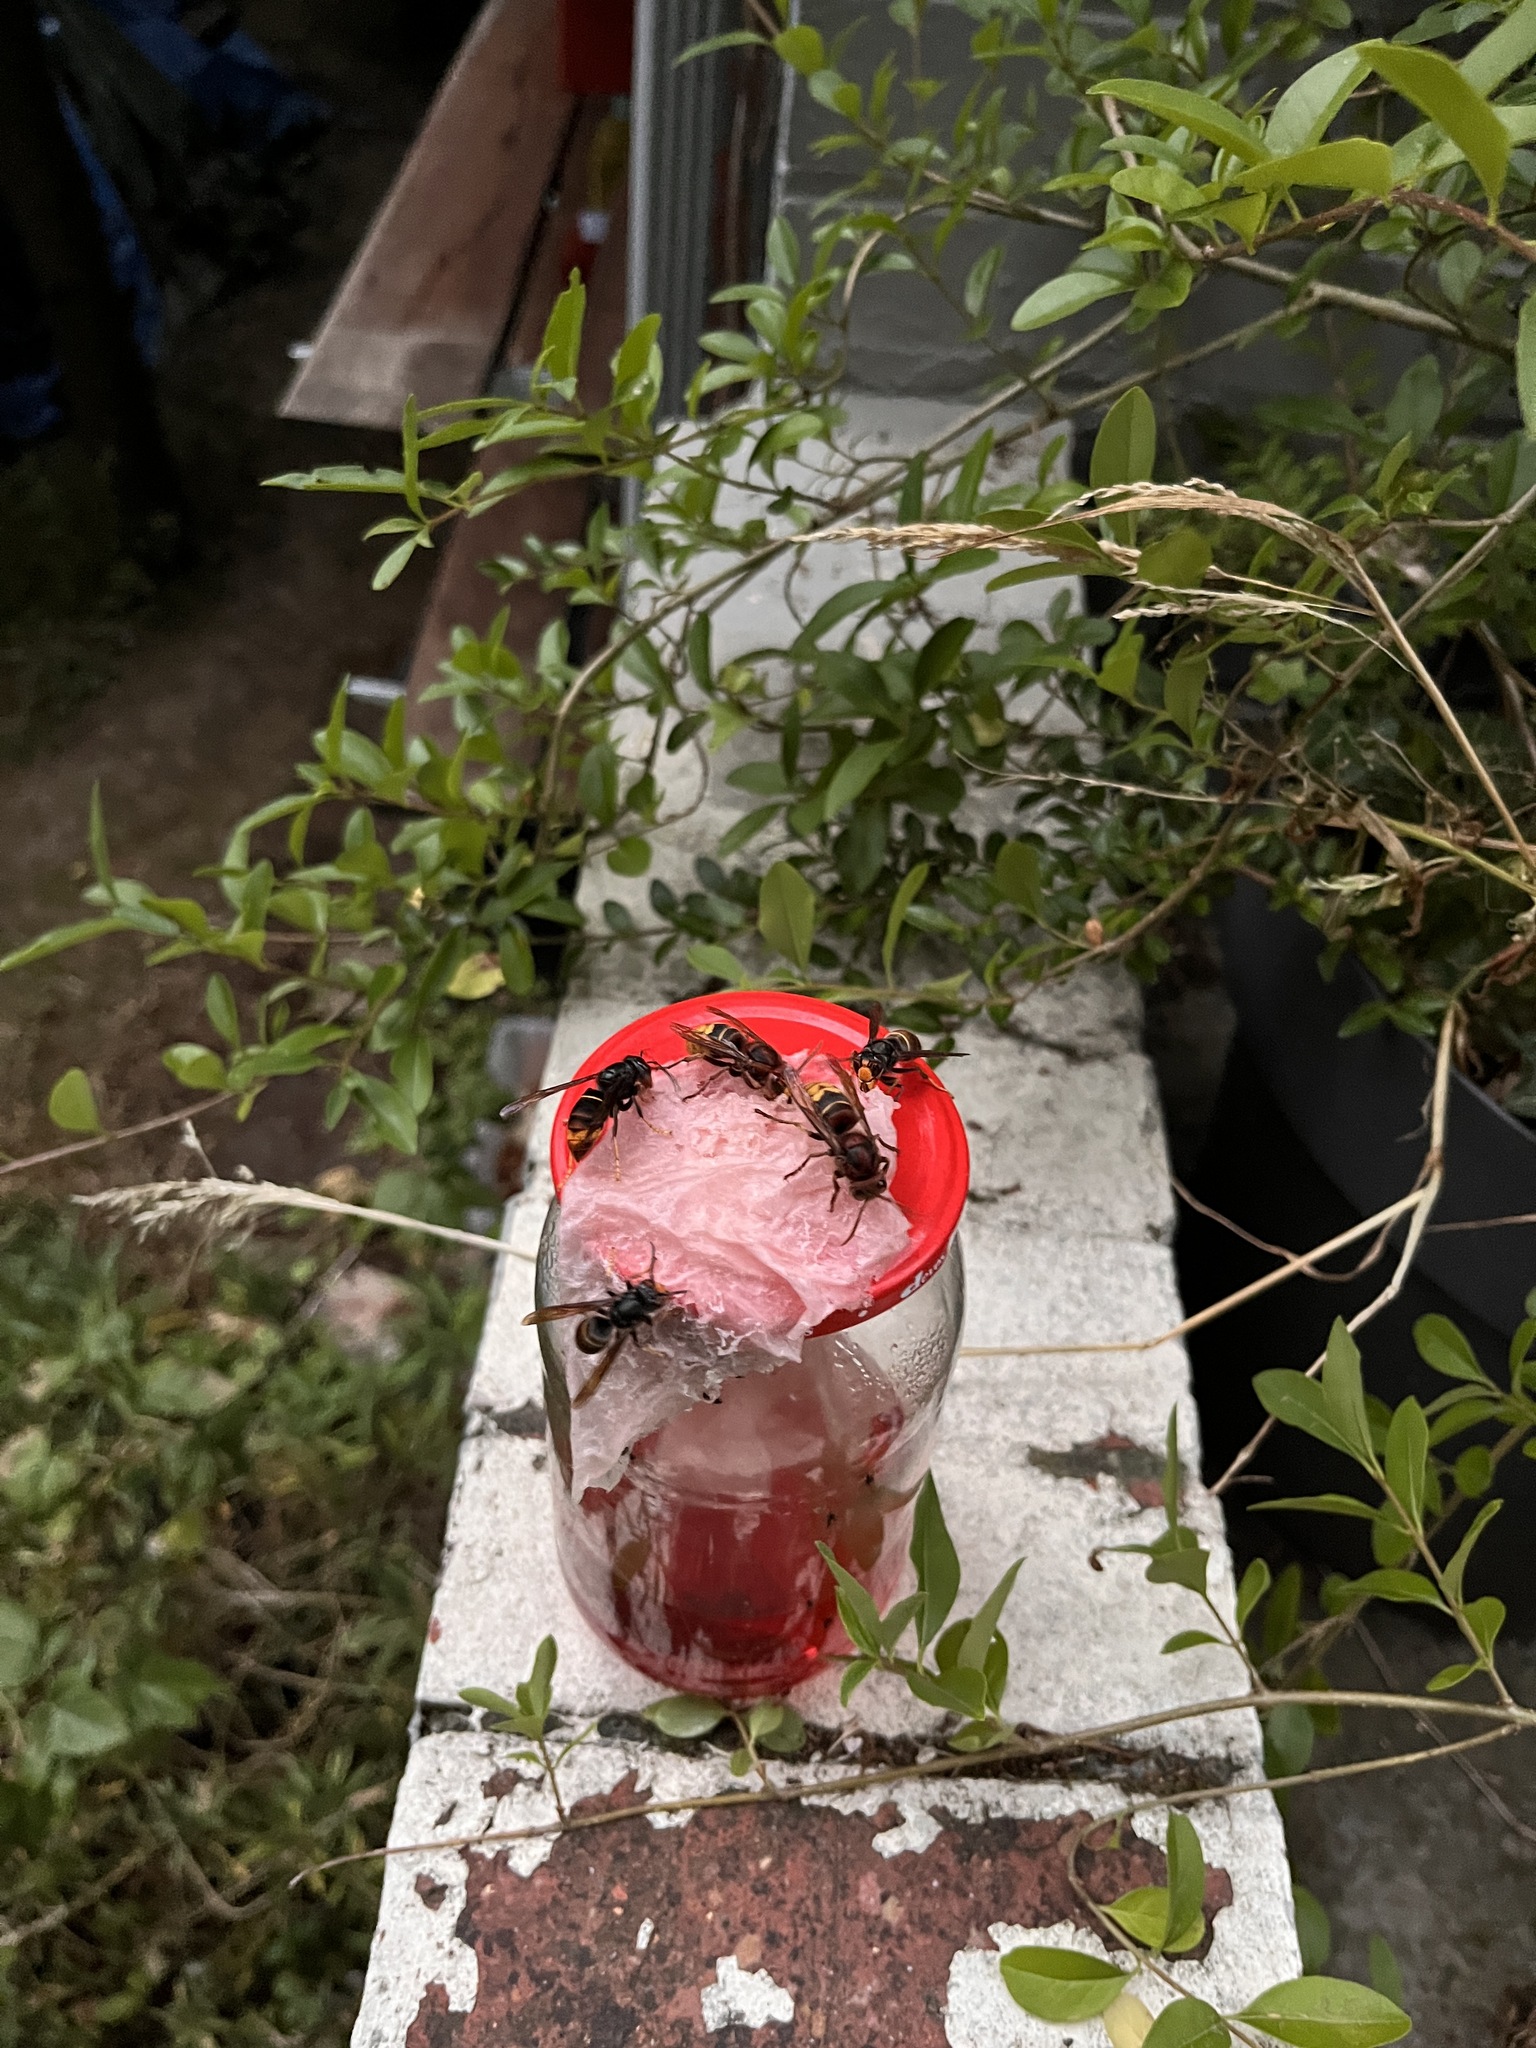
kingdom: Animalia
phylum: Arthropoda
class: Insecta
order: Hymenoptera
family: Vespidae
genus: Vespa
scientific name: Vespa velutina
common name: Asian hornet
